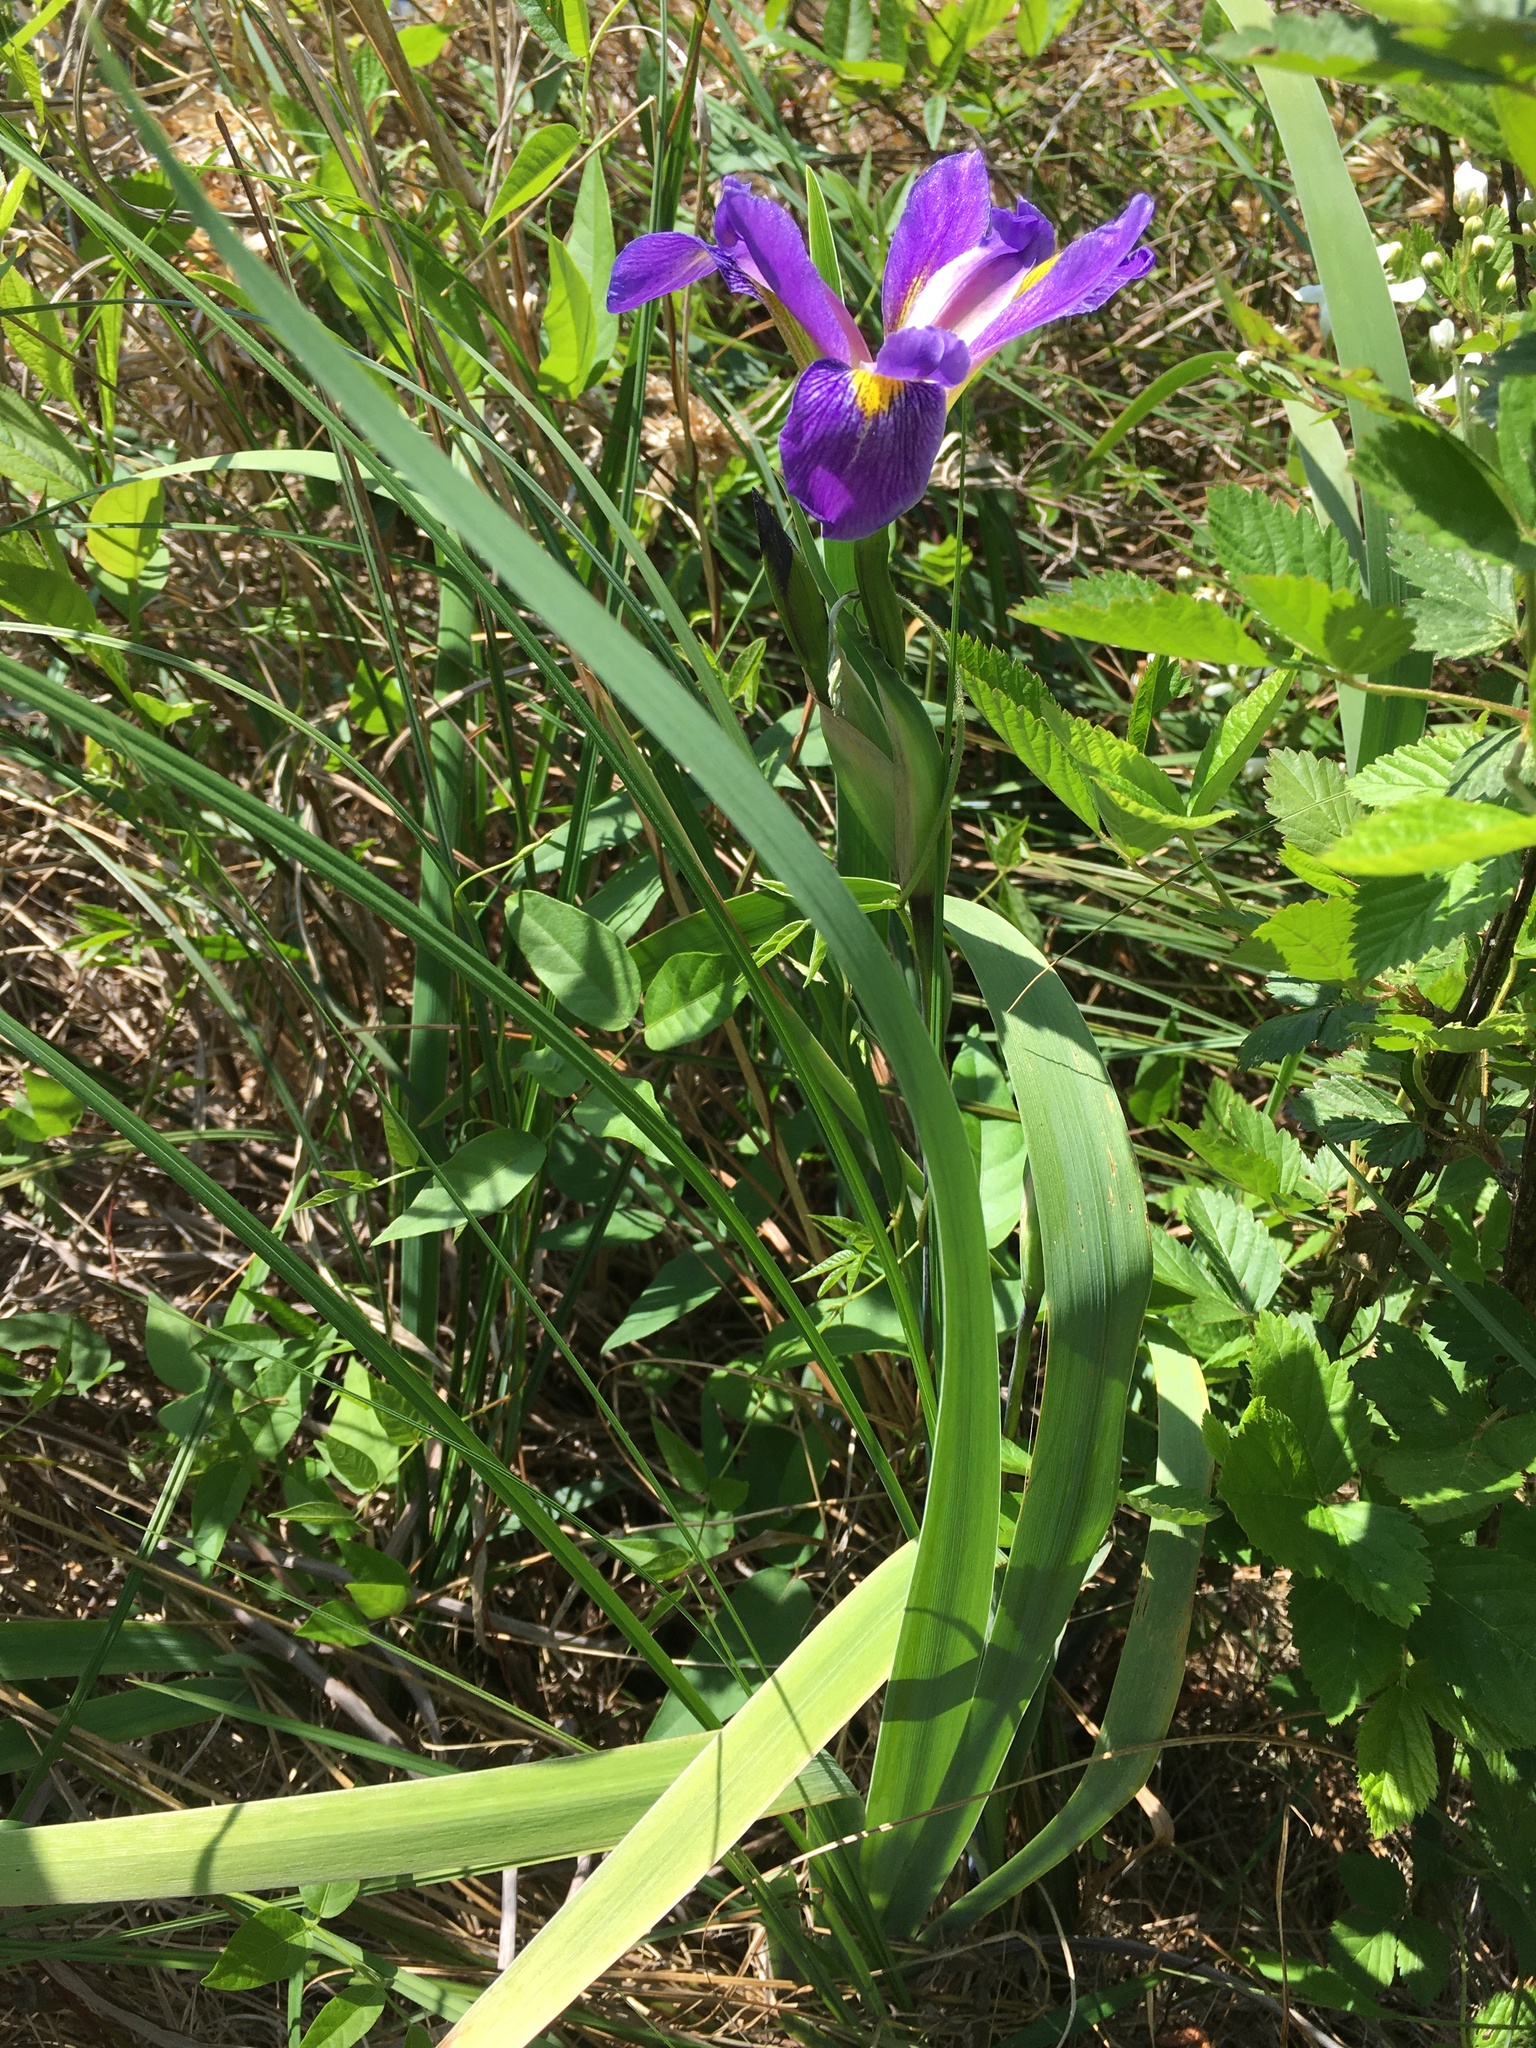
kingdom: Plantae
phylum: Tracheophyta
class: Liliopsida
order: Asparagales
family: Iridaceae
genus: Iris
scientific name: Iris virginica
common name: Southern blue flag
